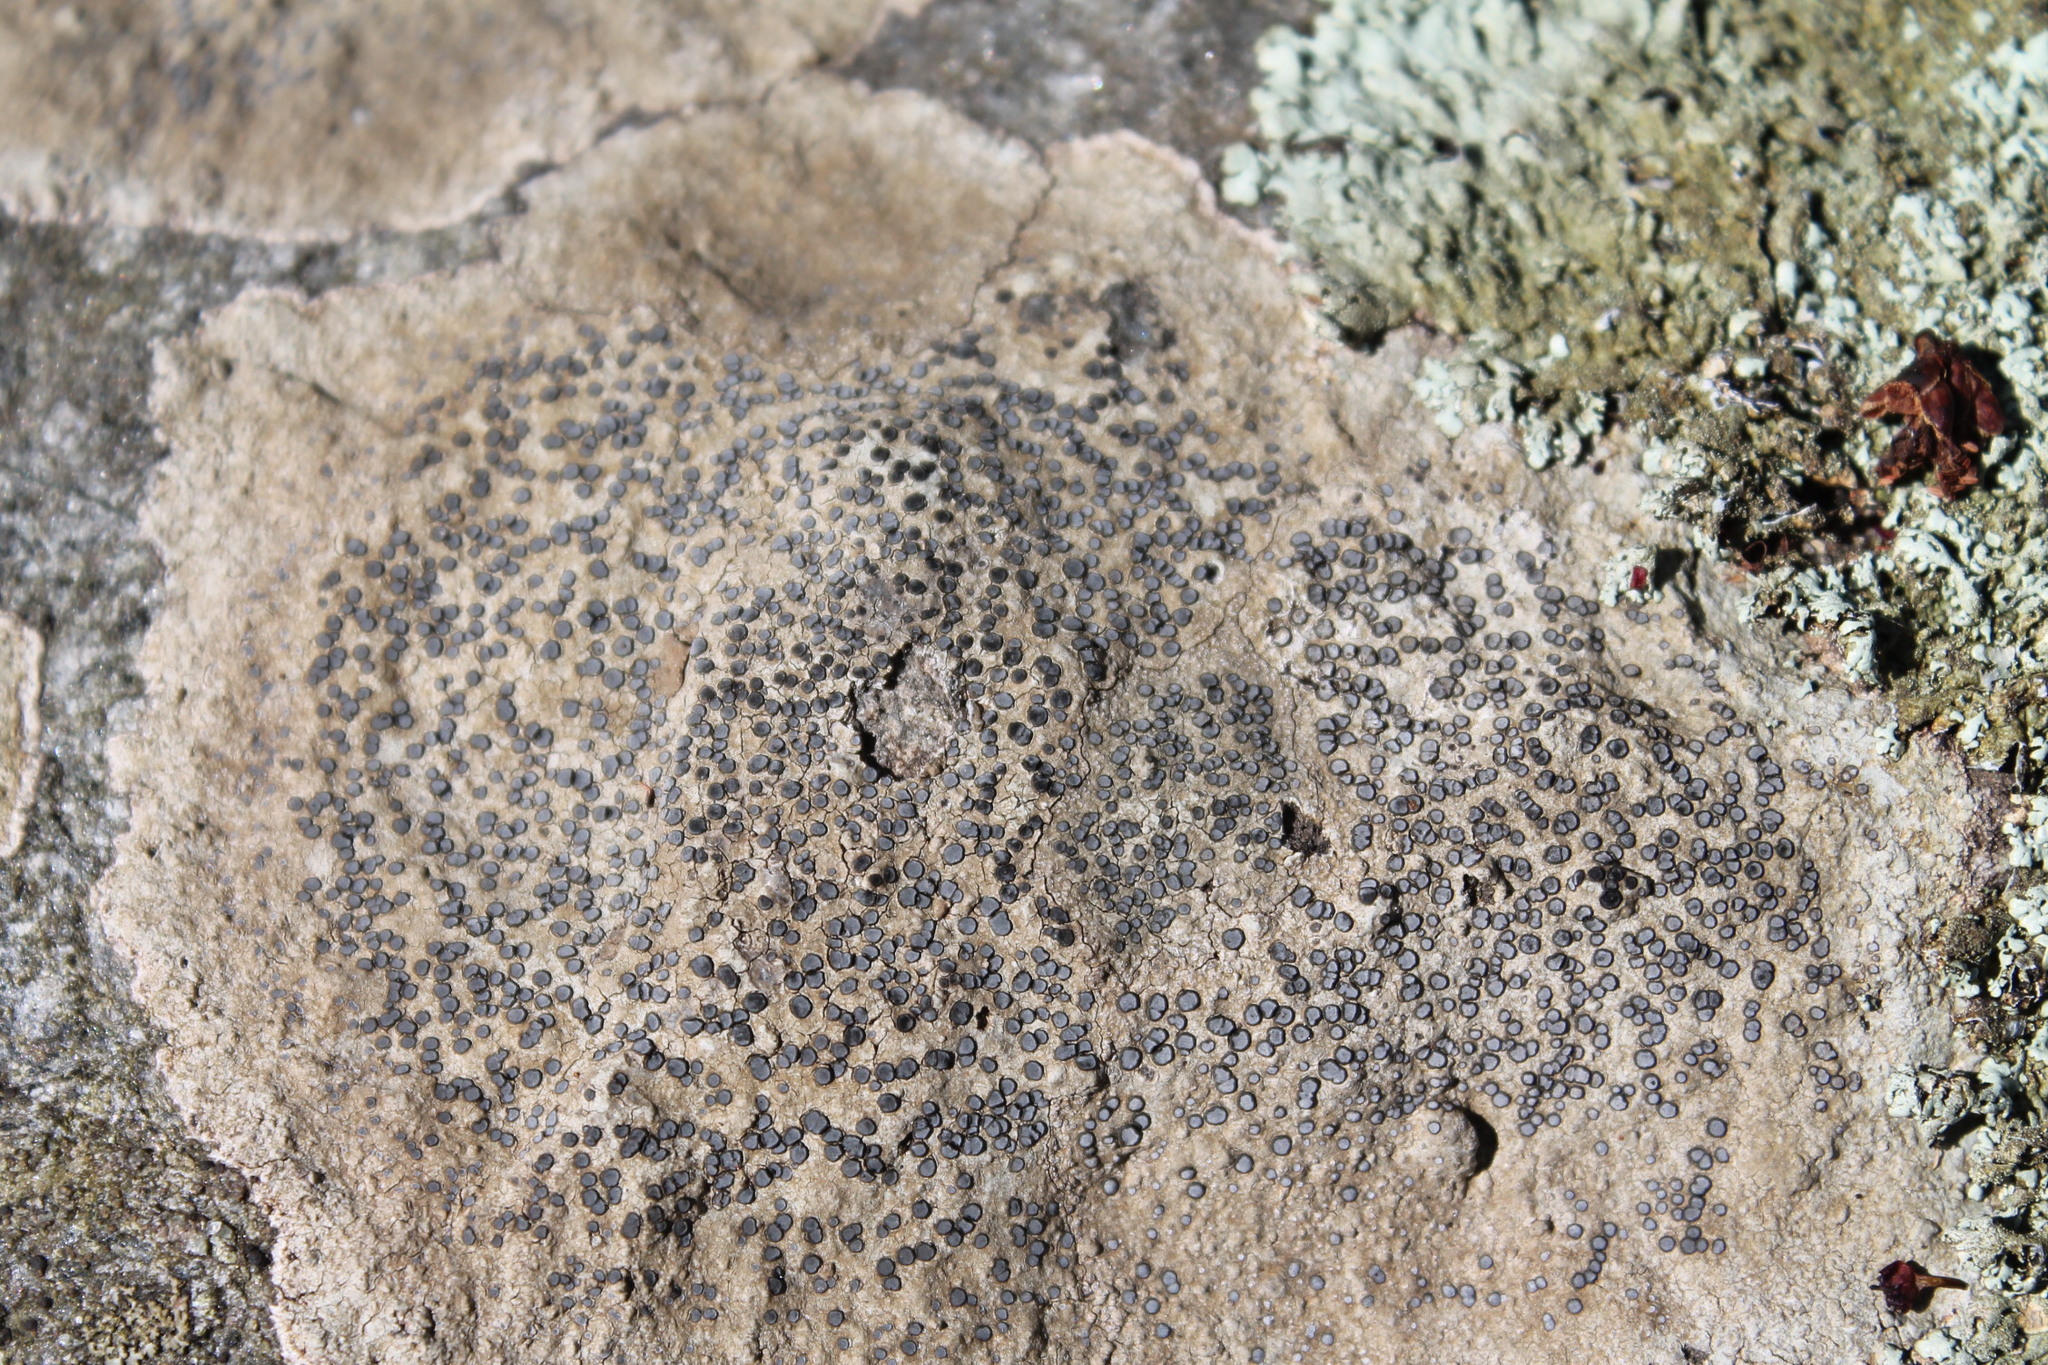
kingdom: Fungi
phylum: Ascomycota
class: Lecanoromycetes
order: Lecideales
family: Lecideaceae
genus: Porpidia
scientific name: Porpidia albocaerulescens
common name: Smokey-eyed boulder lichen
